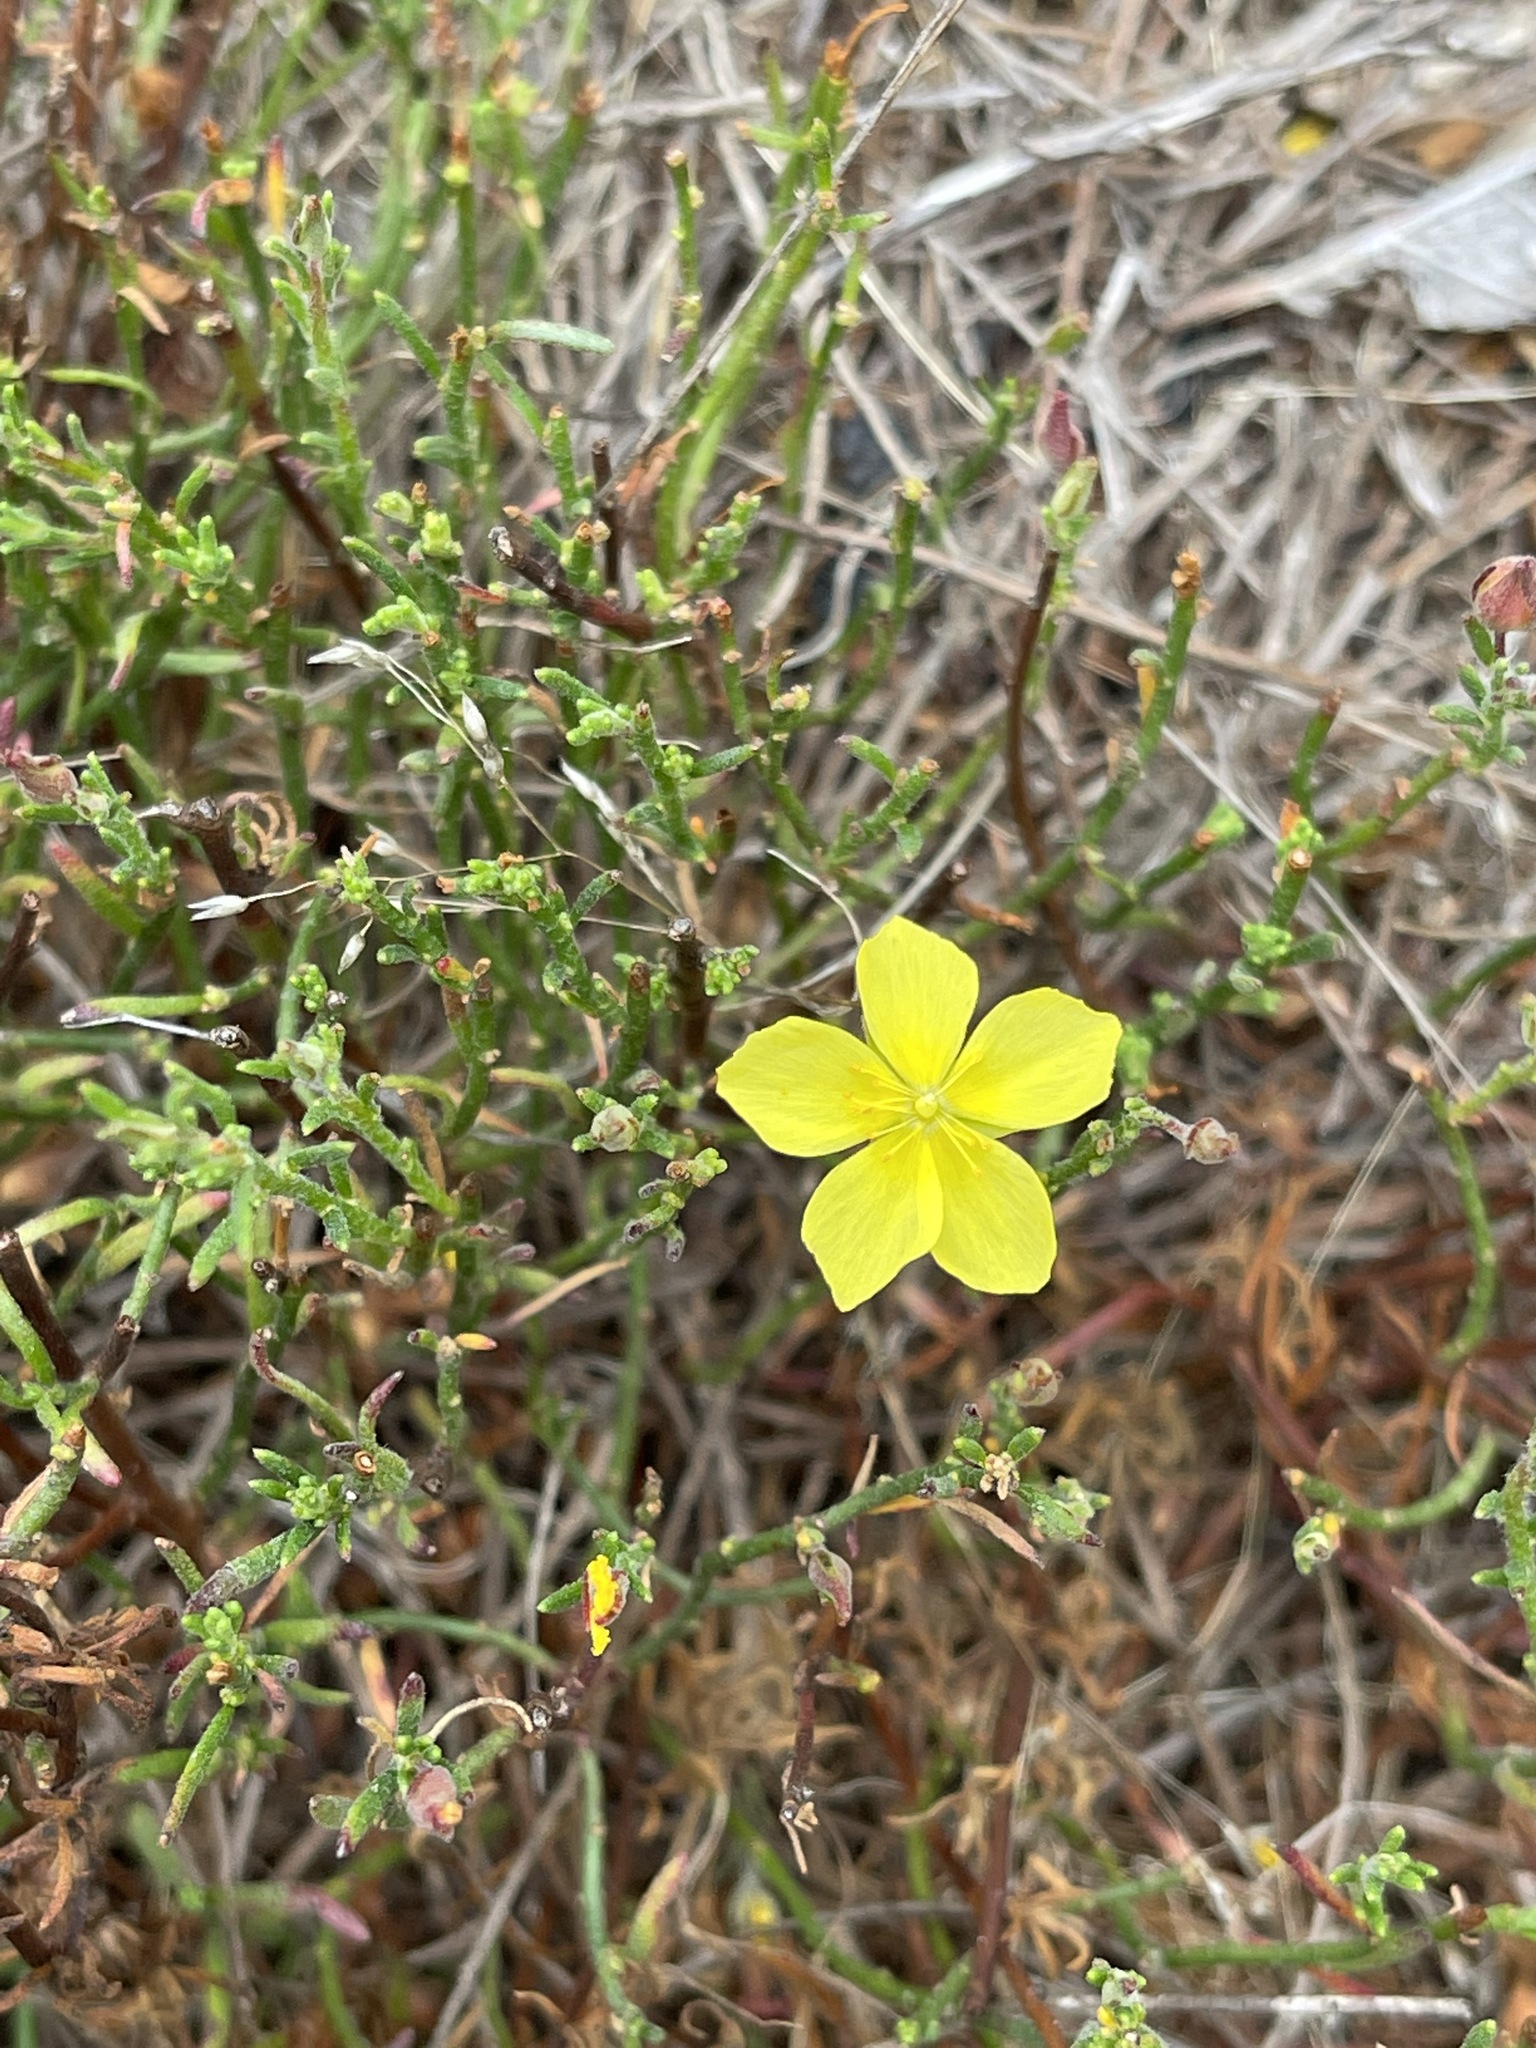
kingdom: Plantae
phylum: Tracheophyta
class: Magnoliopsida
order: Malvales
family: Cistaceae
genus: Crocanthemum
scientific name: Crocanthemum scoparium
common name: Broom-rose
